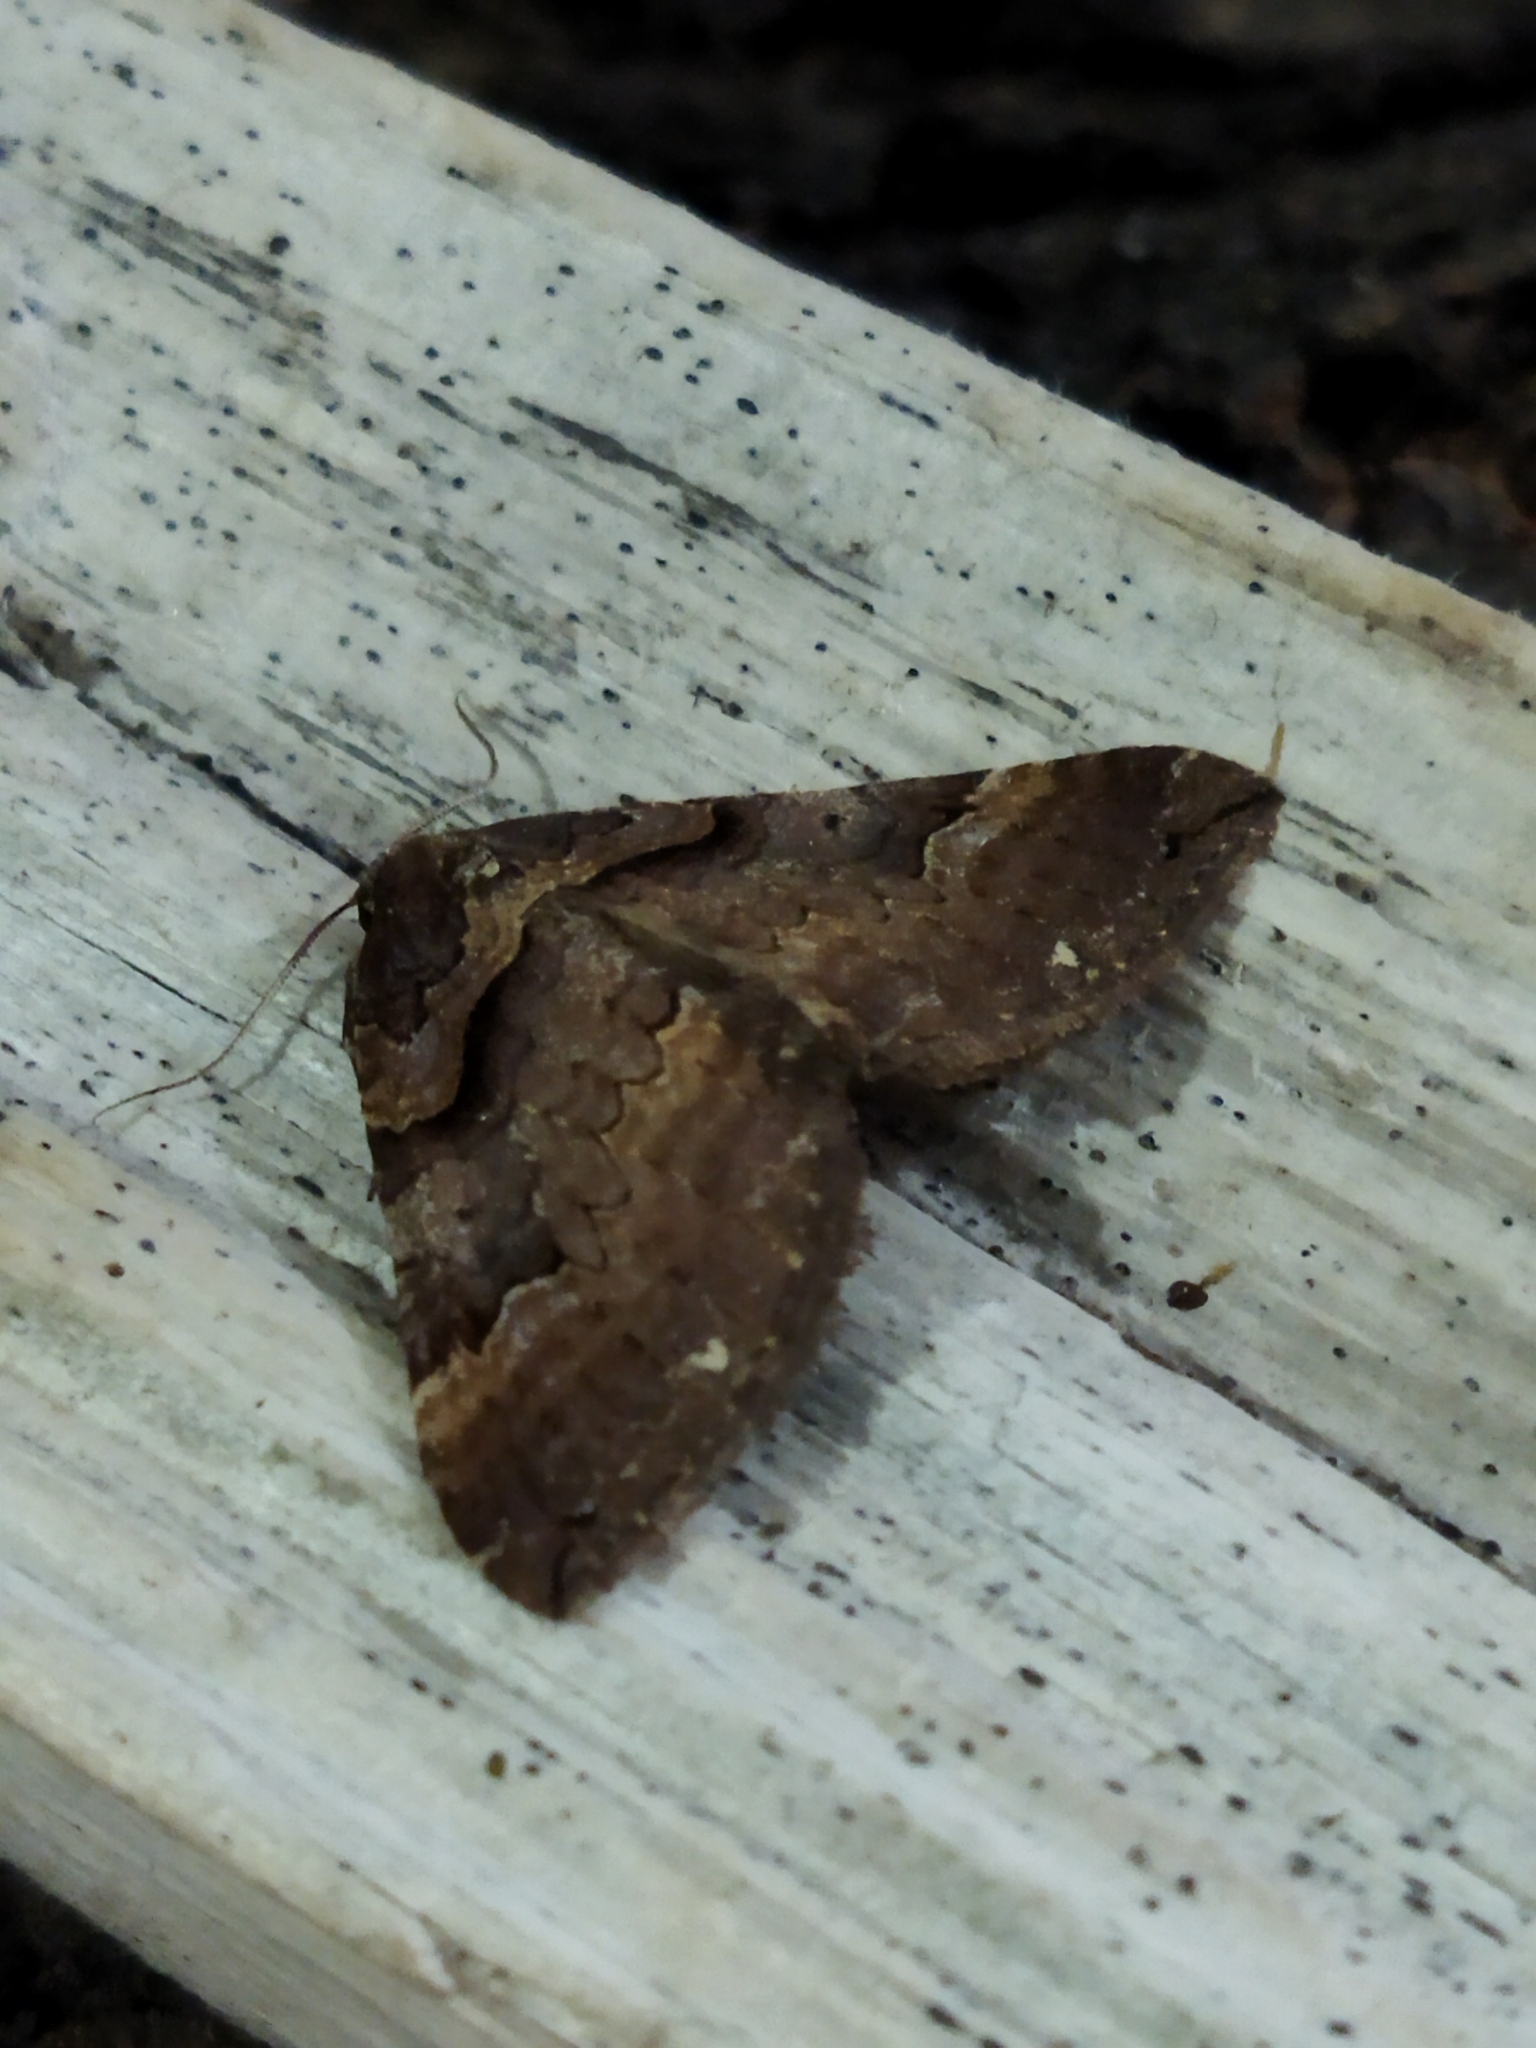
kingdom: Animalia
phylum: Arthropoda
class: Insecta
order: Lepidoptera
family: Geometridae
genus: Anticlea
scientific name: Anticlea badiata
